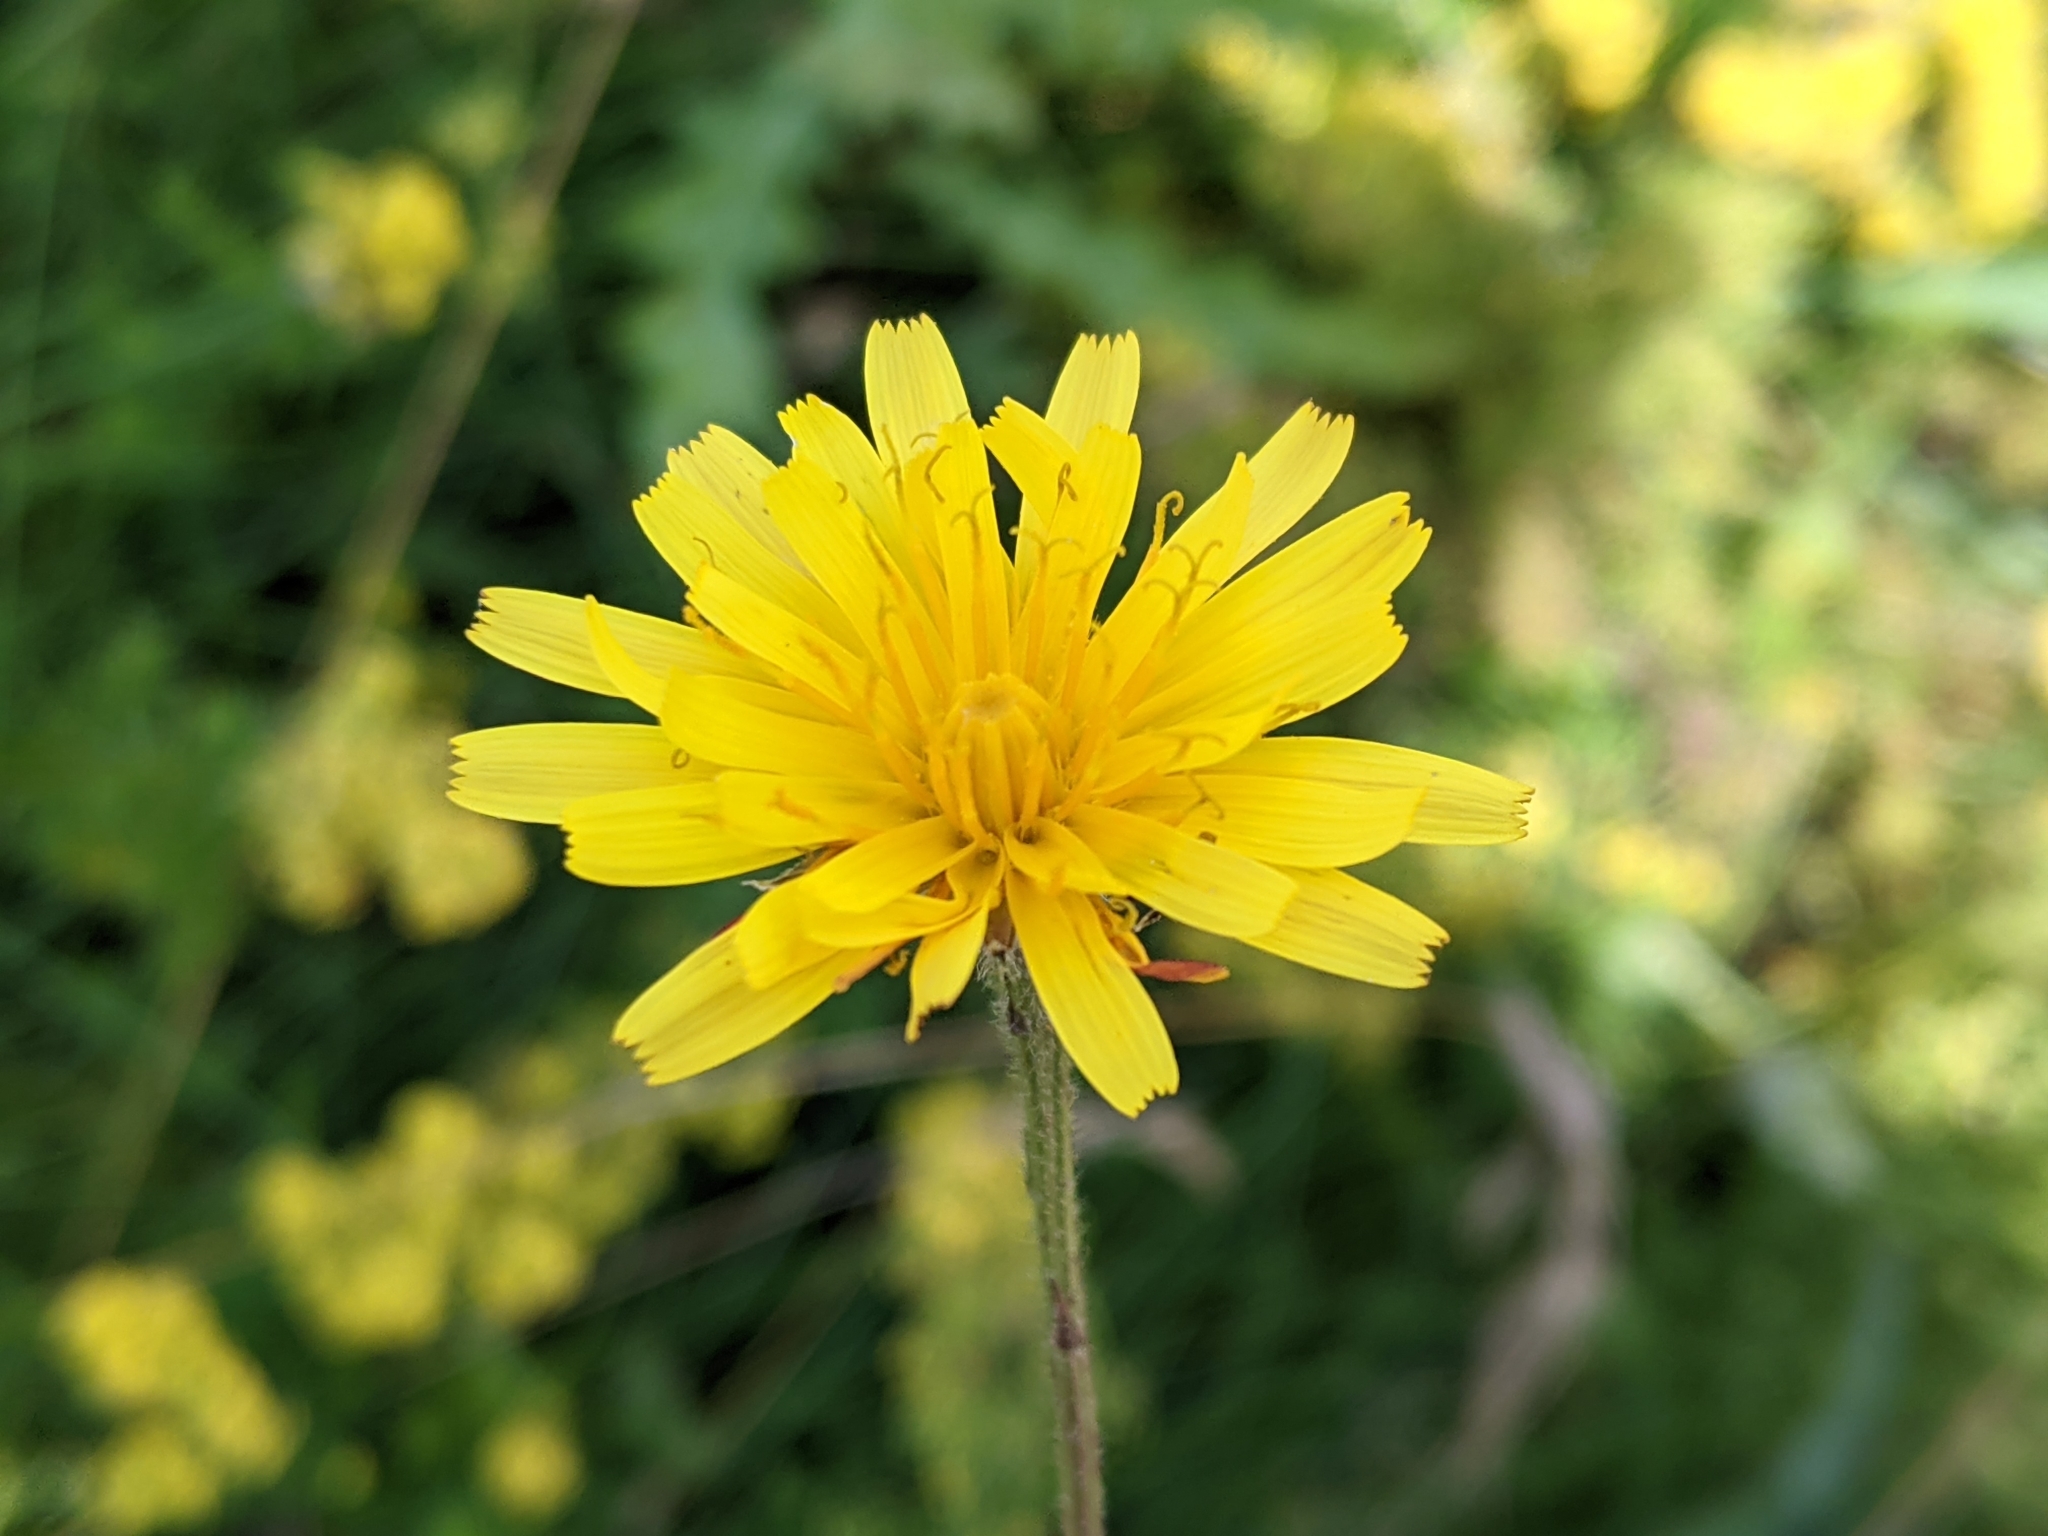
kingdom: Plantae
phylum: Tracheophyta
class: Magnoliopsida
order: Asterales
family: Asteraceae
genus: Leontodon
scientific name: Leontodon hispidus
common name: Rough hawkbit
